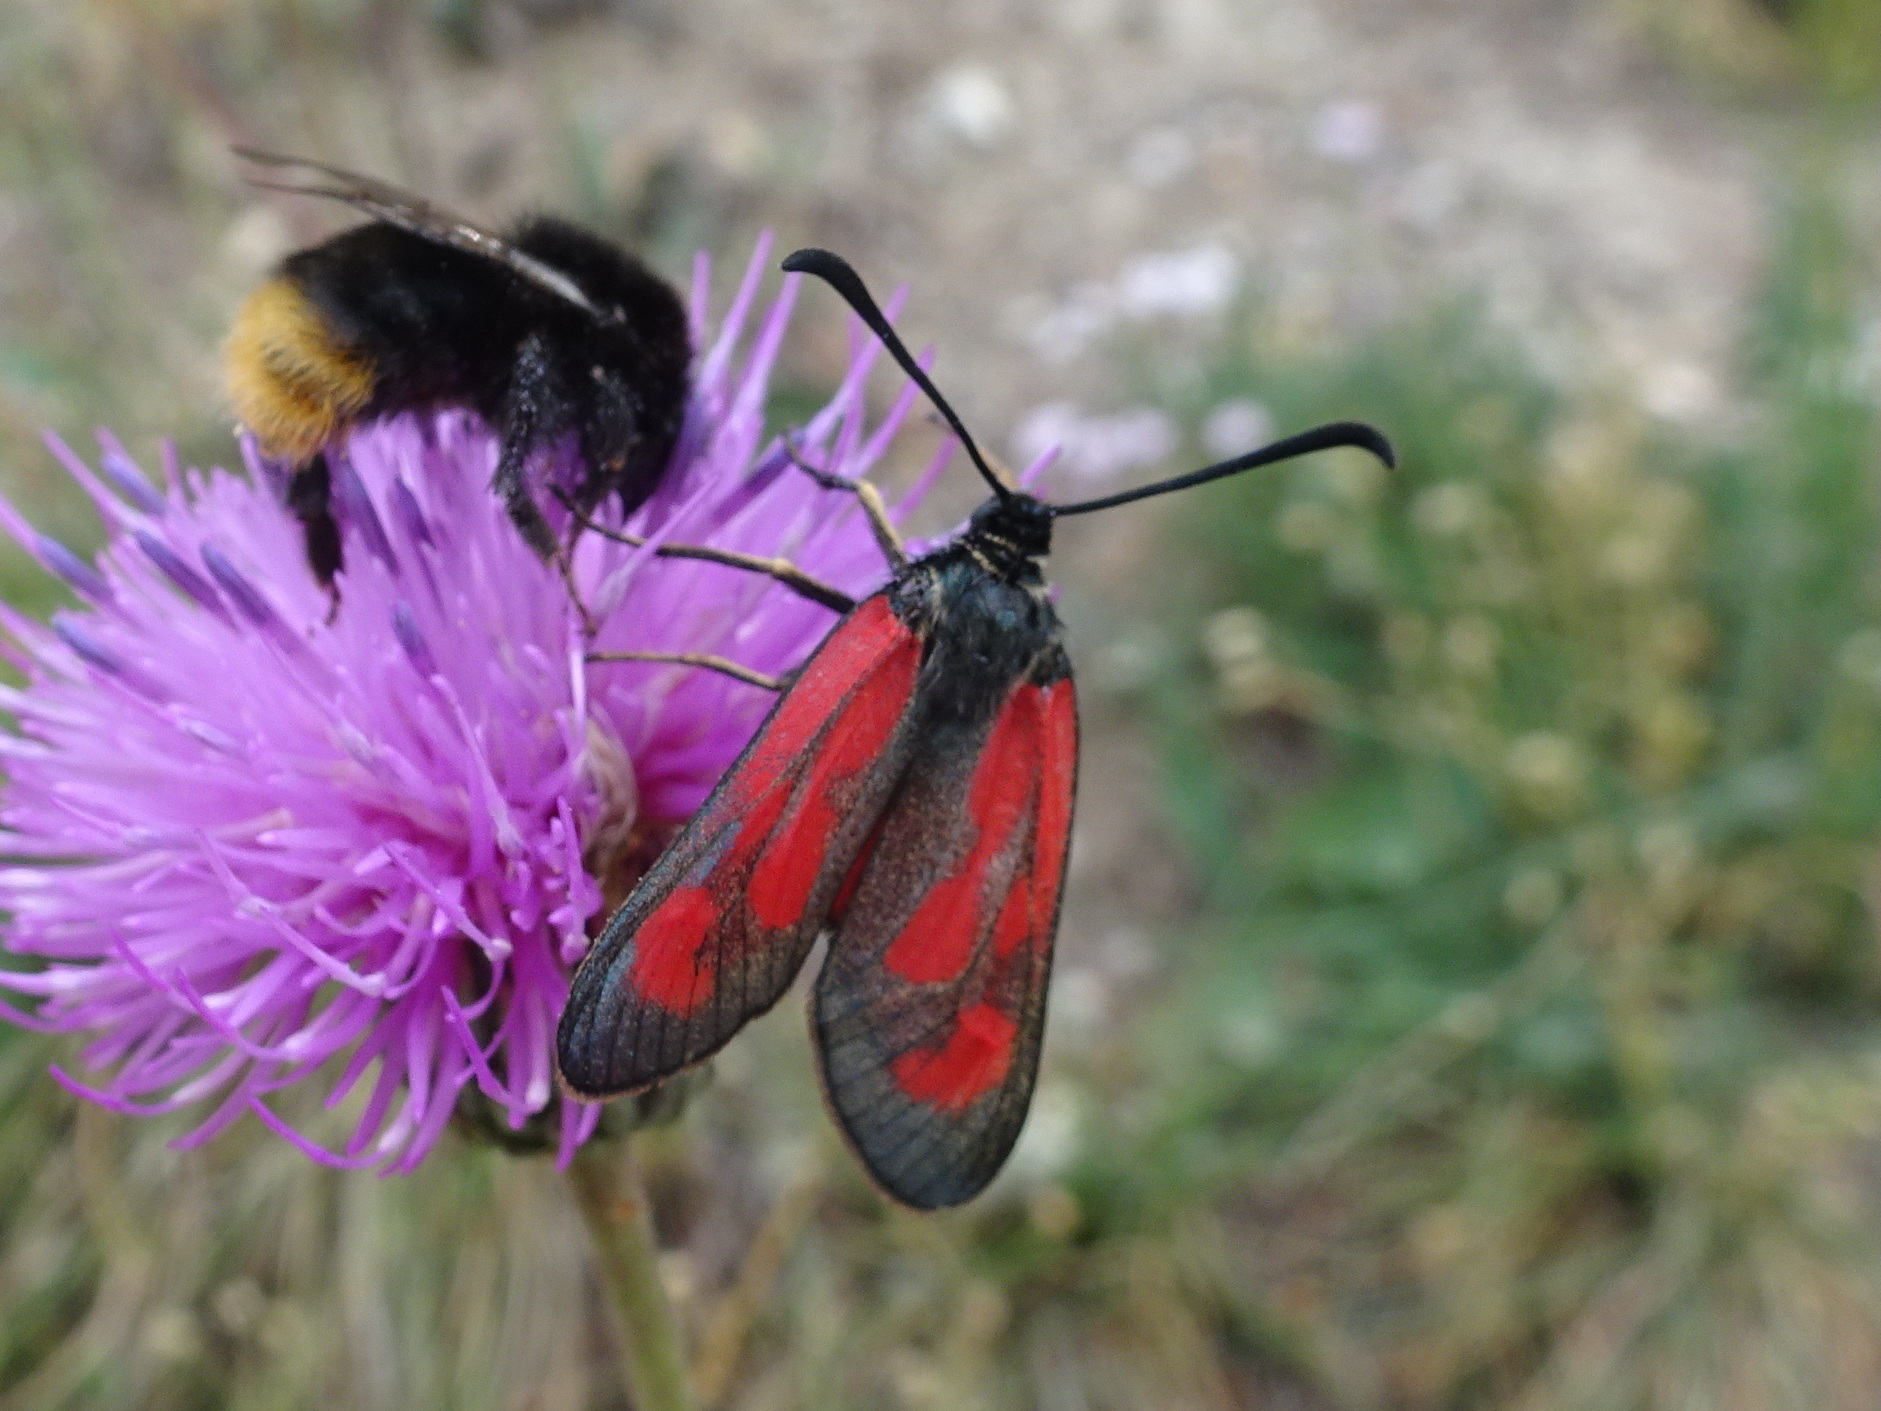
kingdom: Animalia
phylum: Arthropoda
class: Insecta
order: Lepidoptera
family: Zygaenidae
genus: Zygaena
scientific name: Zygaena loti
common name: Slender scotch burnet
